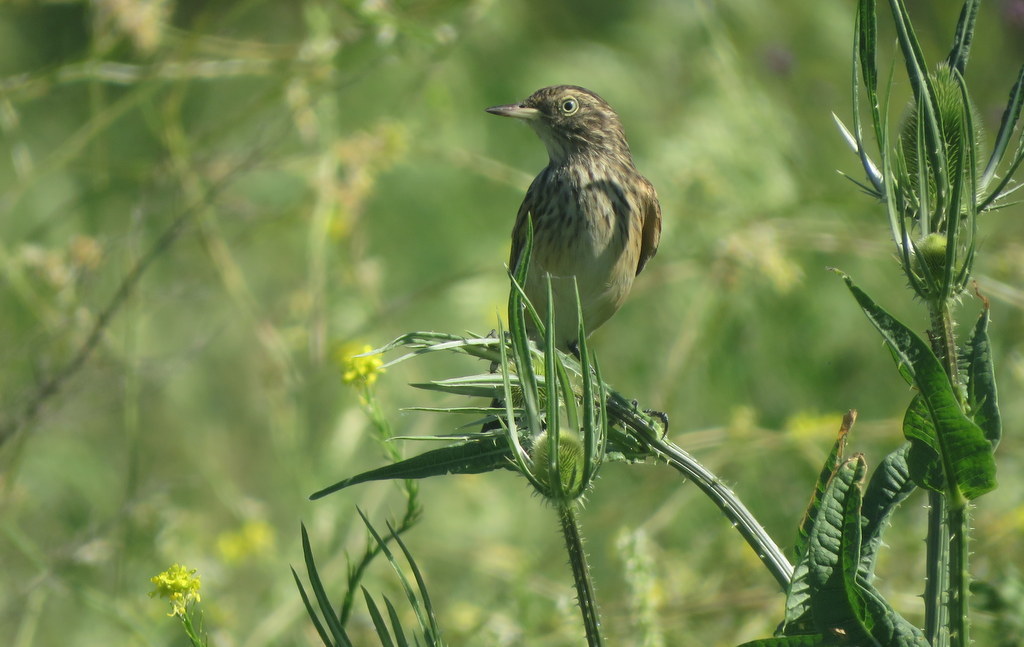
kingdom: Animalia
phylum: Chordata
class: Aves
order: Passeriformes
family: Tyrannidae
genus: Hymenops
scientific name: Hymenops perspicillatus
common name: Spectacled tyrant
